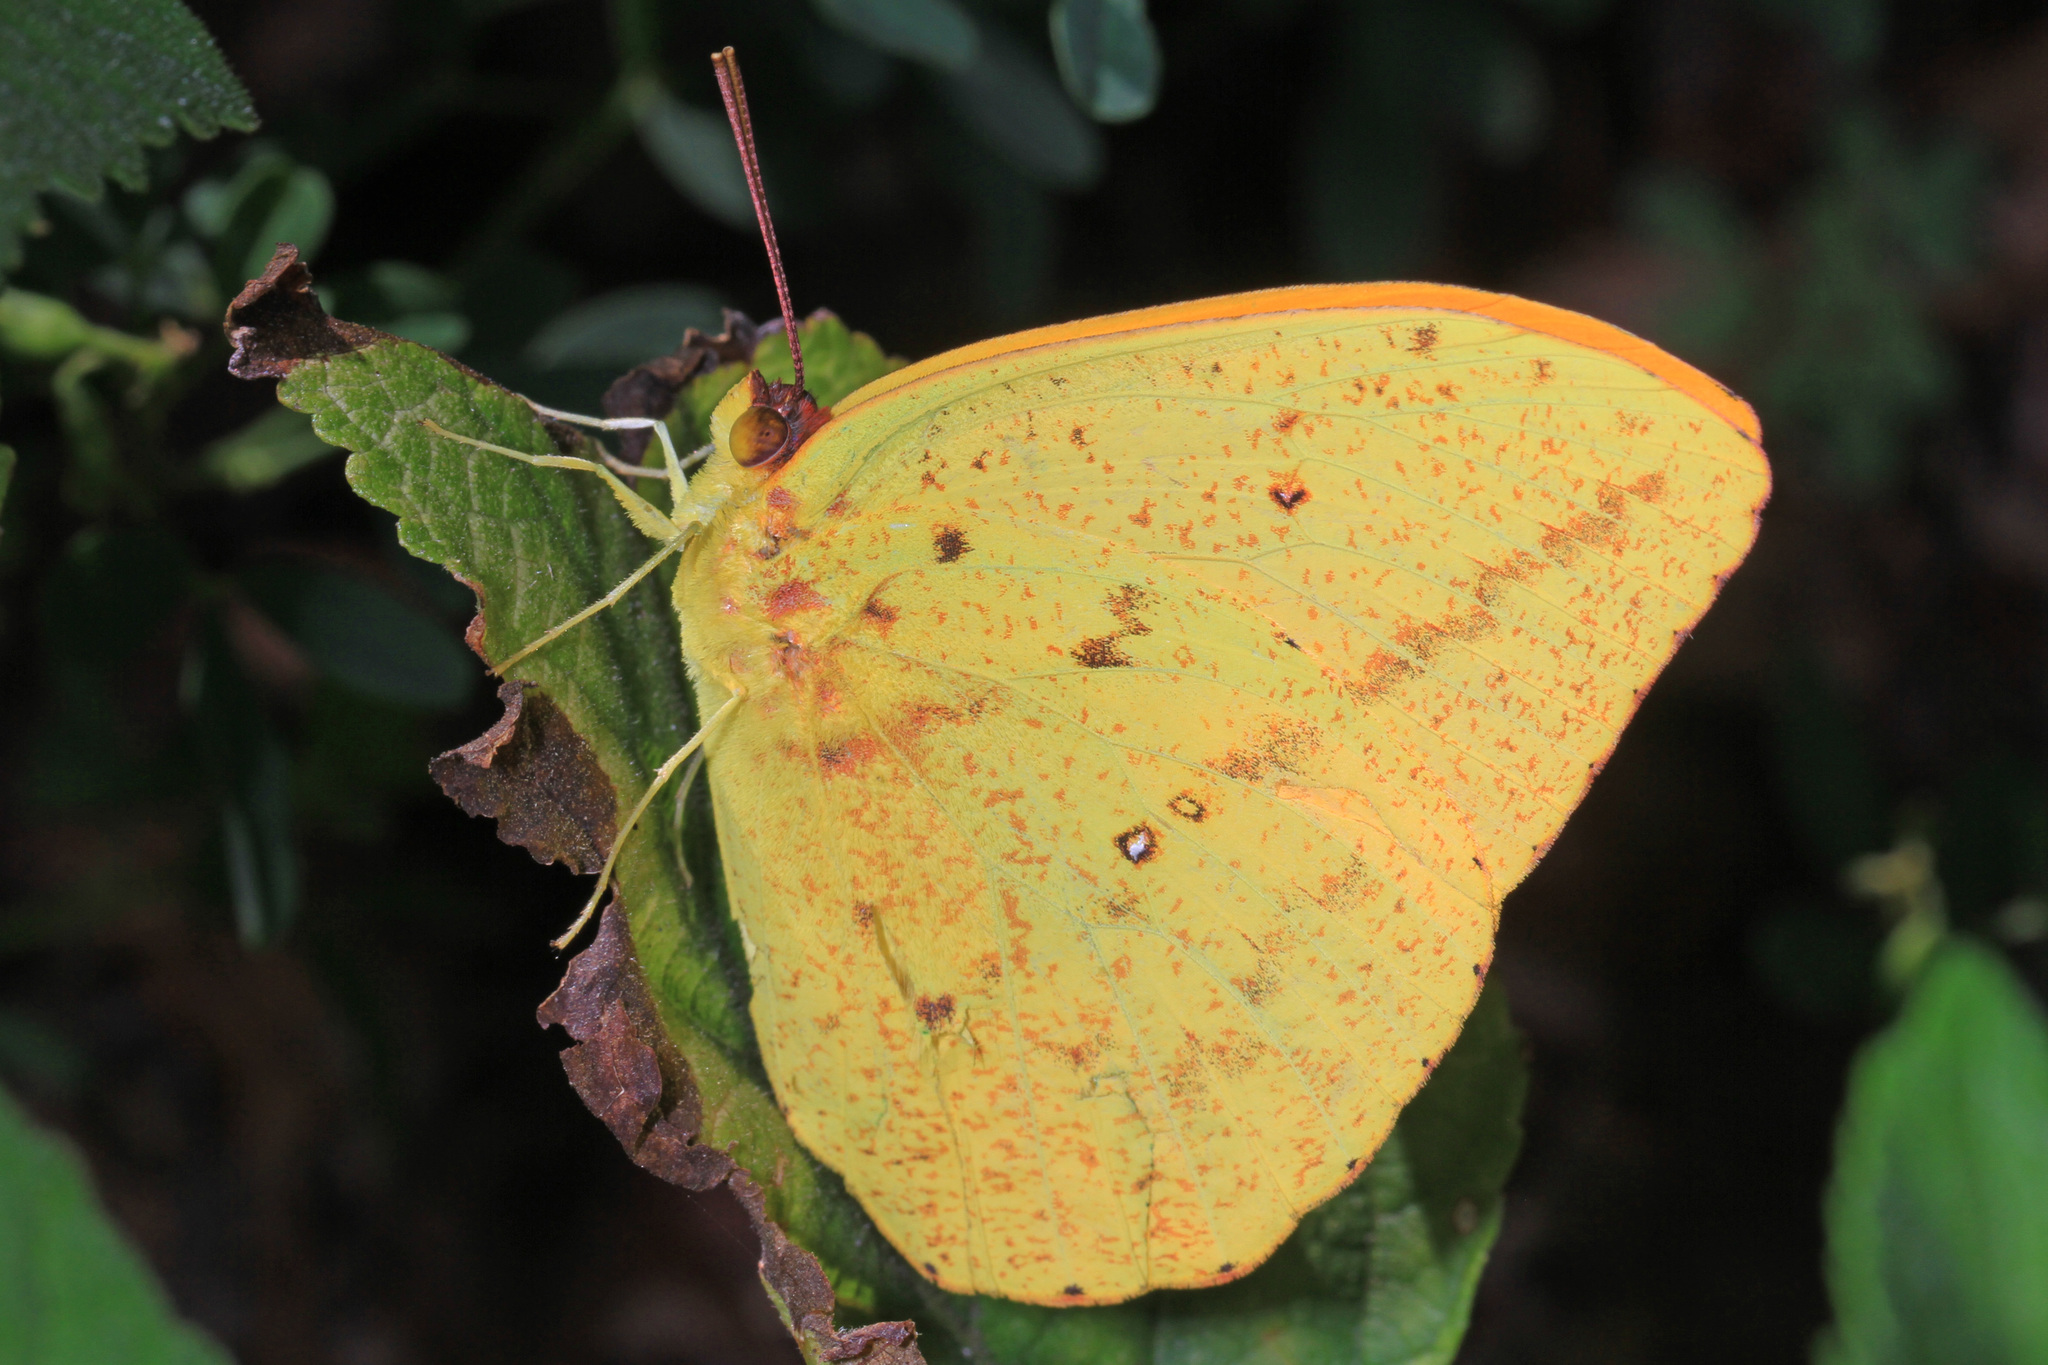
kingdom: Animalia
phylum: Arthropoda
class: Insecta
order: Lepidoptera
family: Pieridae
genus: Phoebis
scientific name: Phoebis agarithe
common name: Large orange sulphur
